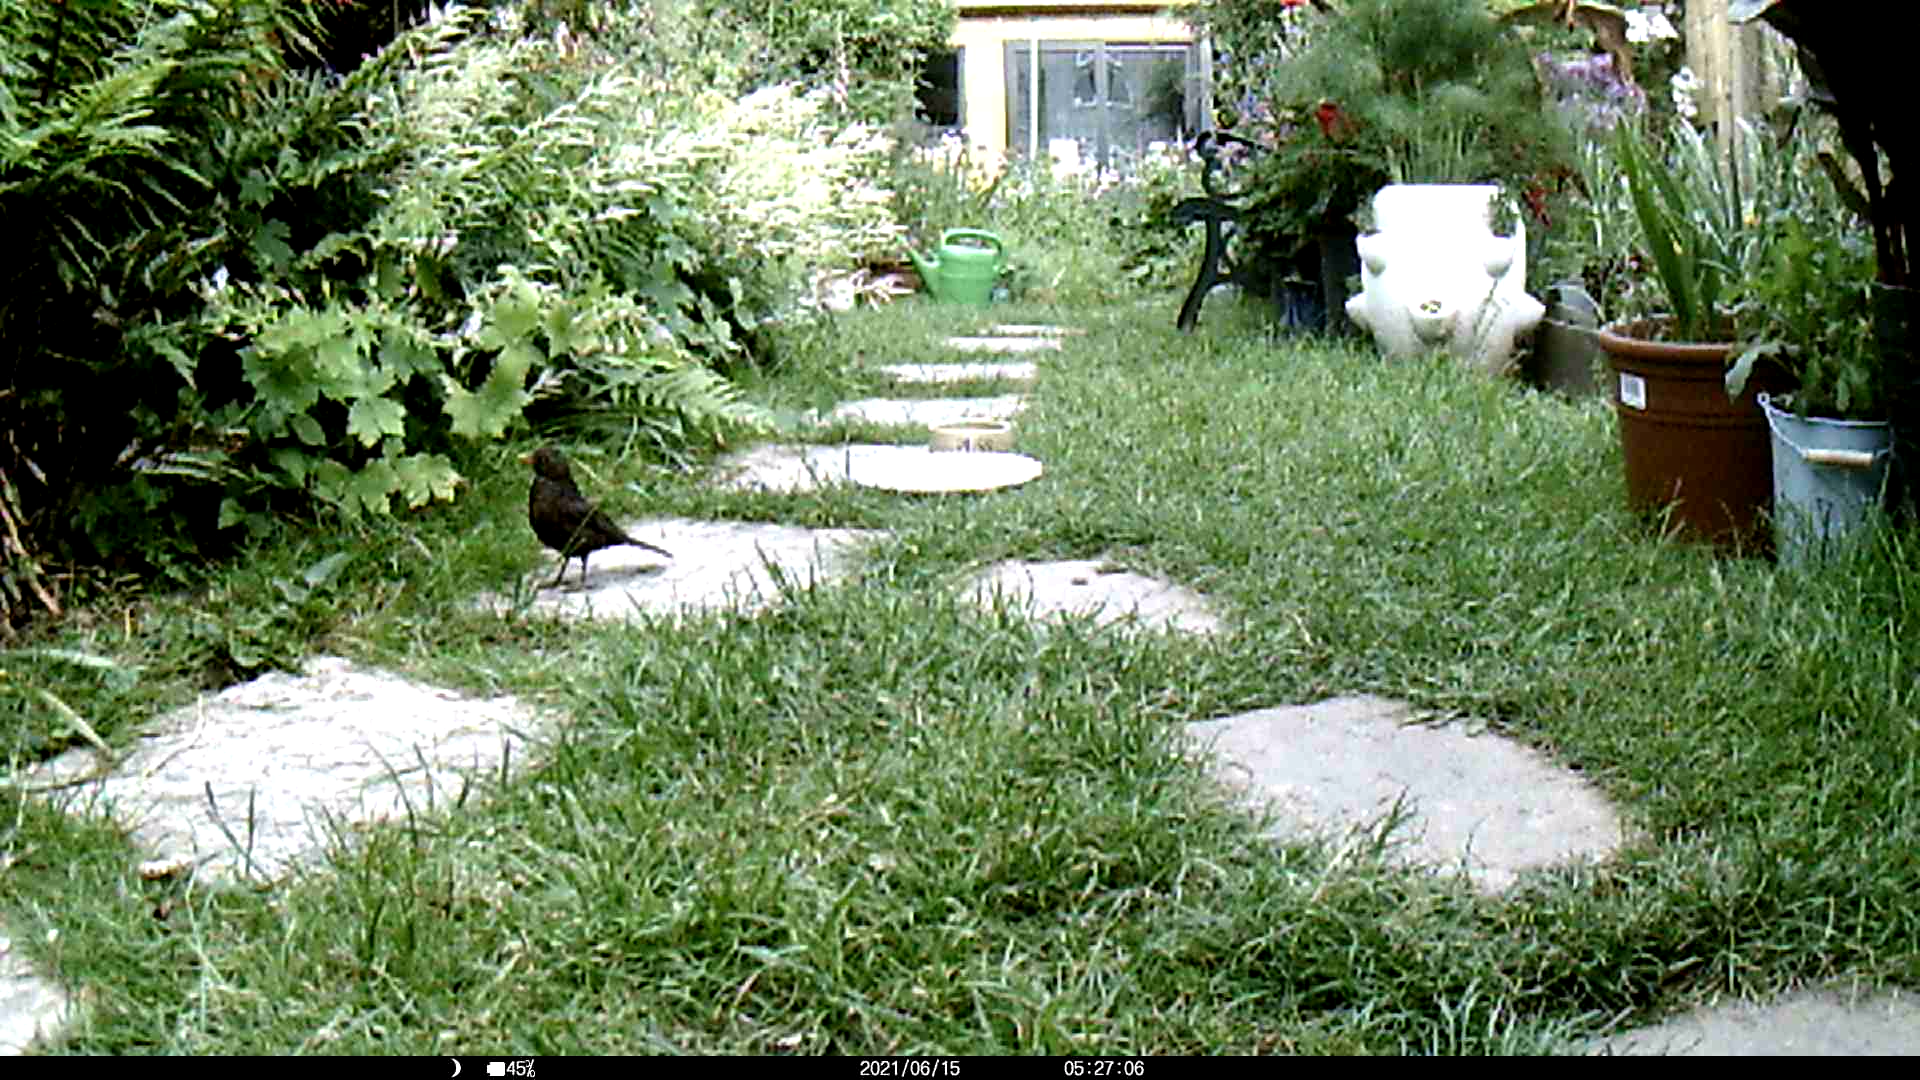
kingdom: Animalia
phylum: Chordata
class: Aves
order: Passeriformes
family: Turdidae
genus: Turdus
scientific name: Turdus merula
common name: Common blackbird
